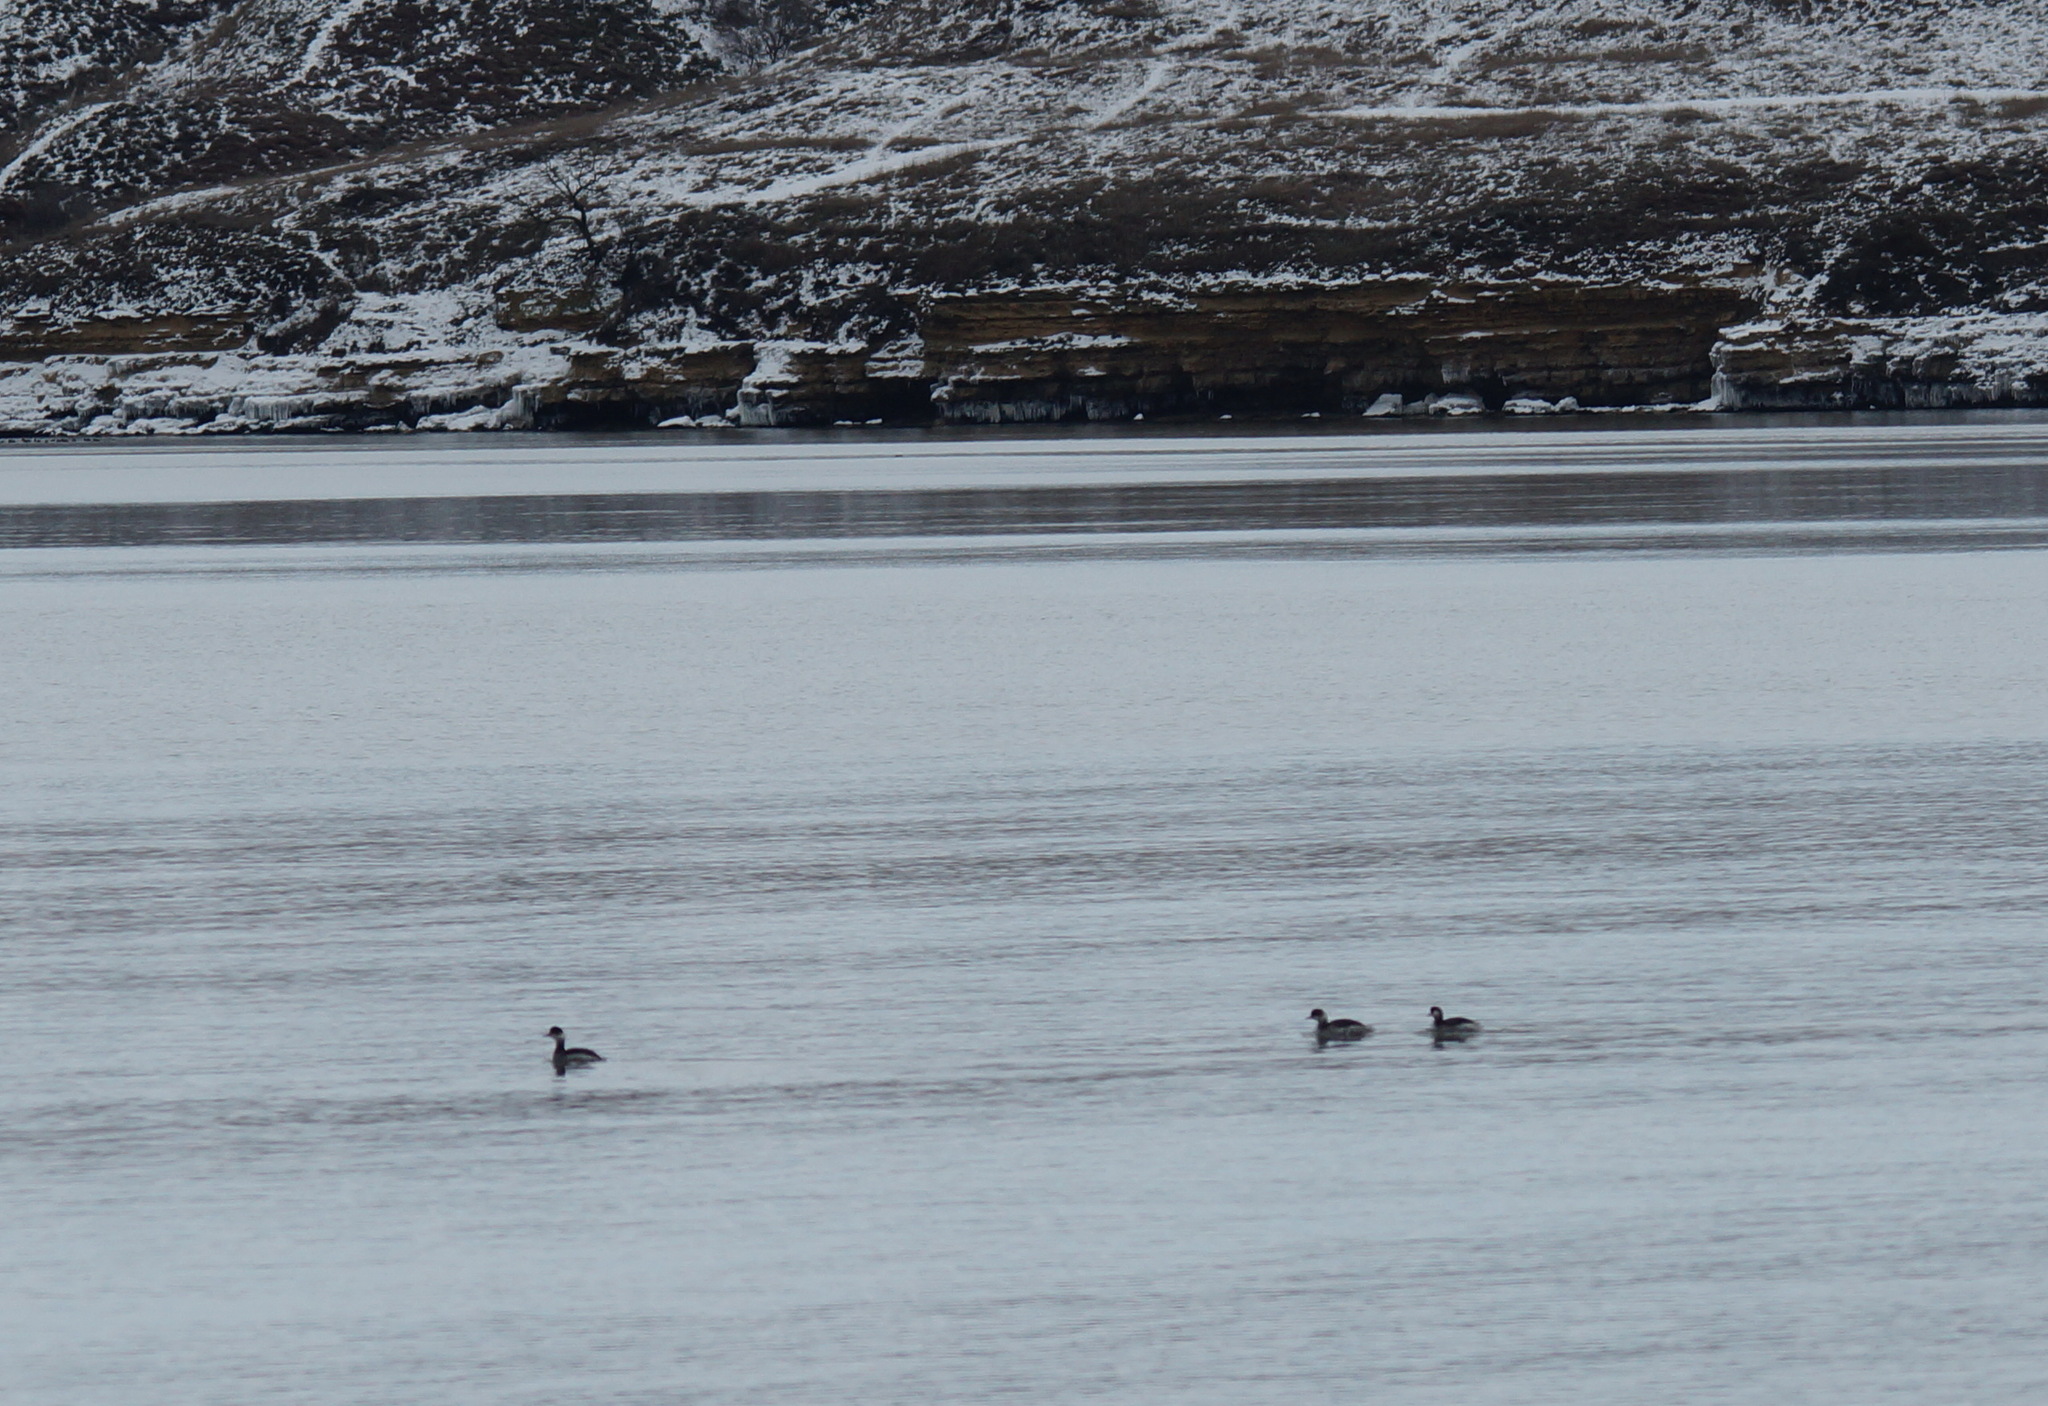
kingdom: Animalia
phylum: Chordata
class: Aves
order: Podicipediformes
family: Podicipedidae
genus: Podiceps
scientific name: Podiceps nigricollis
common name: Black-necked grebe
